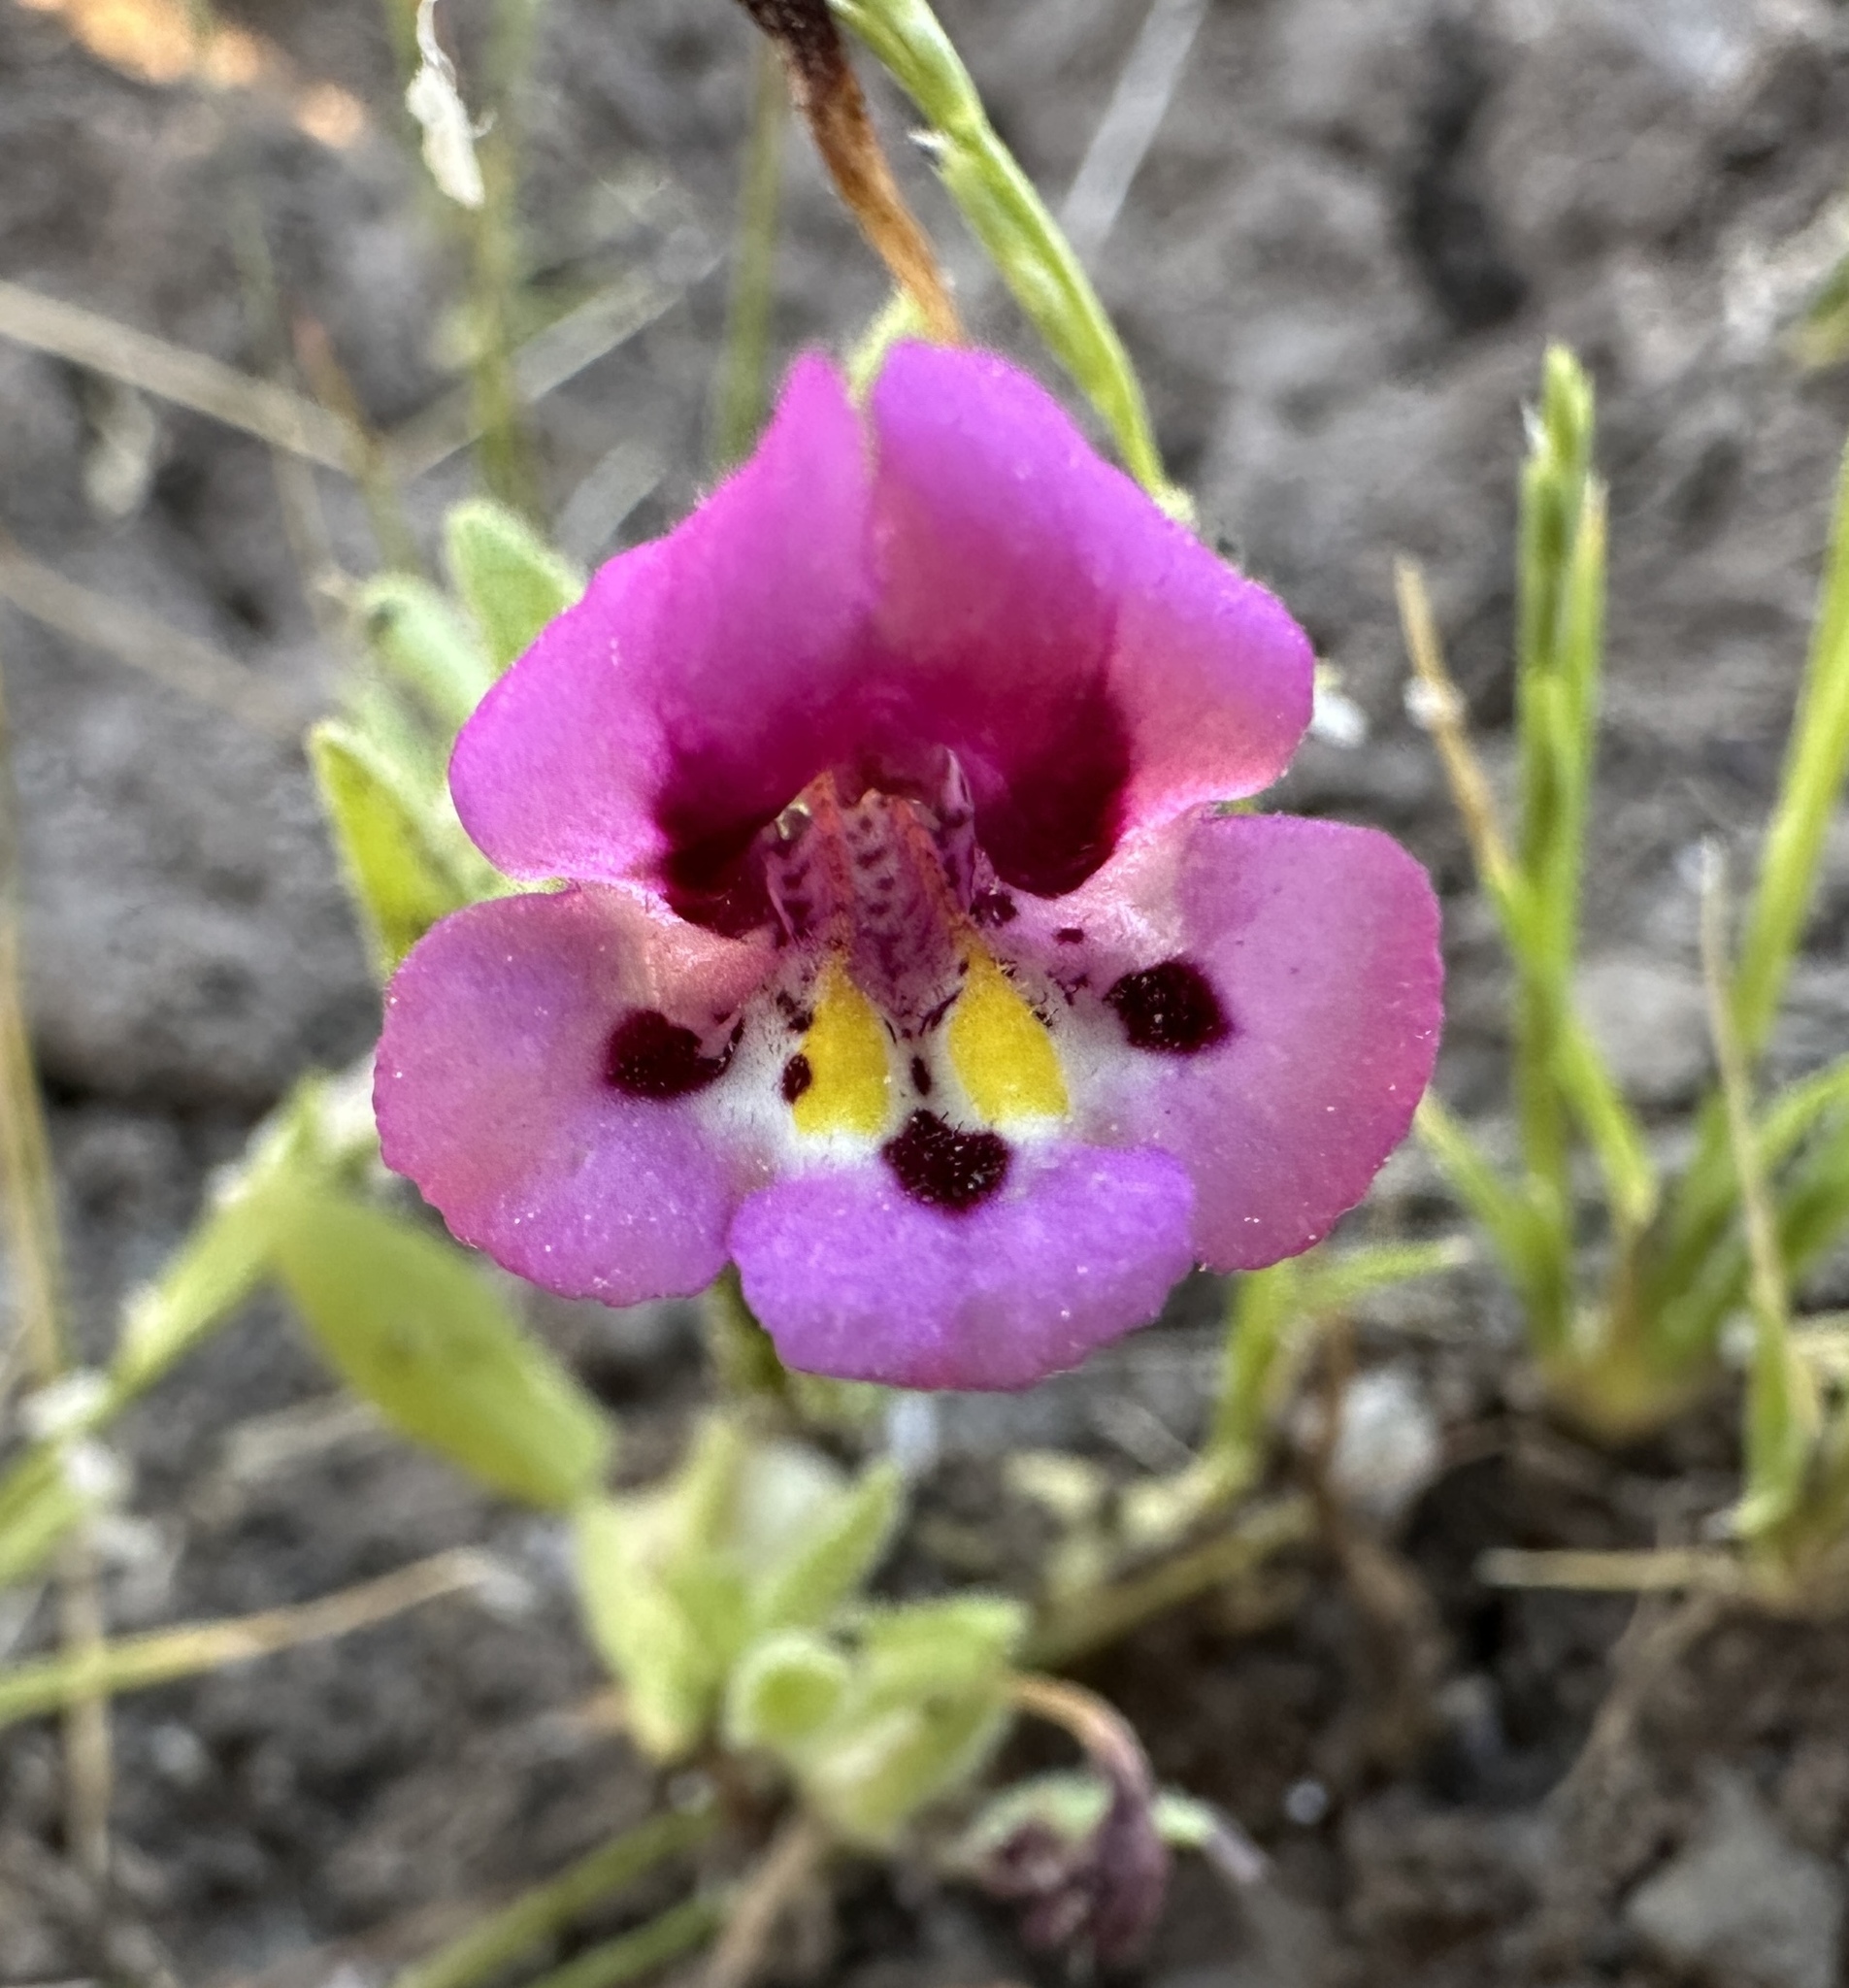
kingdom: Plantae
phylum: Tracheophyta
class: Magnoliopsida
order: Lamiales
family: Phrymaceae
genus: Diplacus
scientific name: Diplacus tricolor
